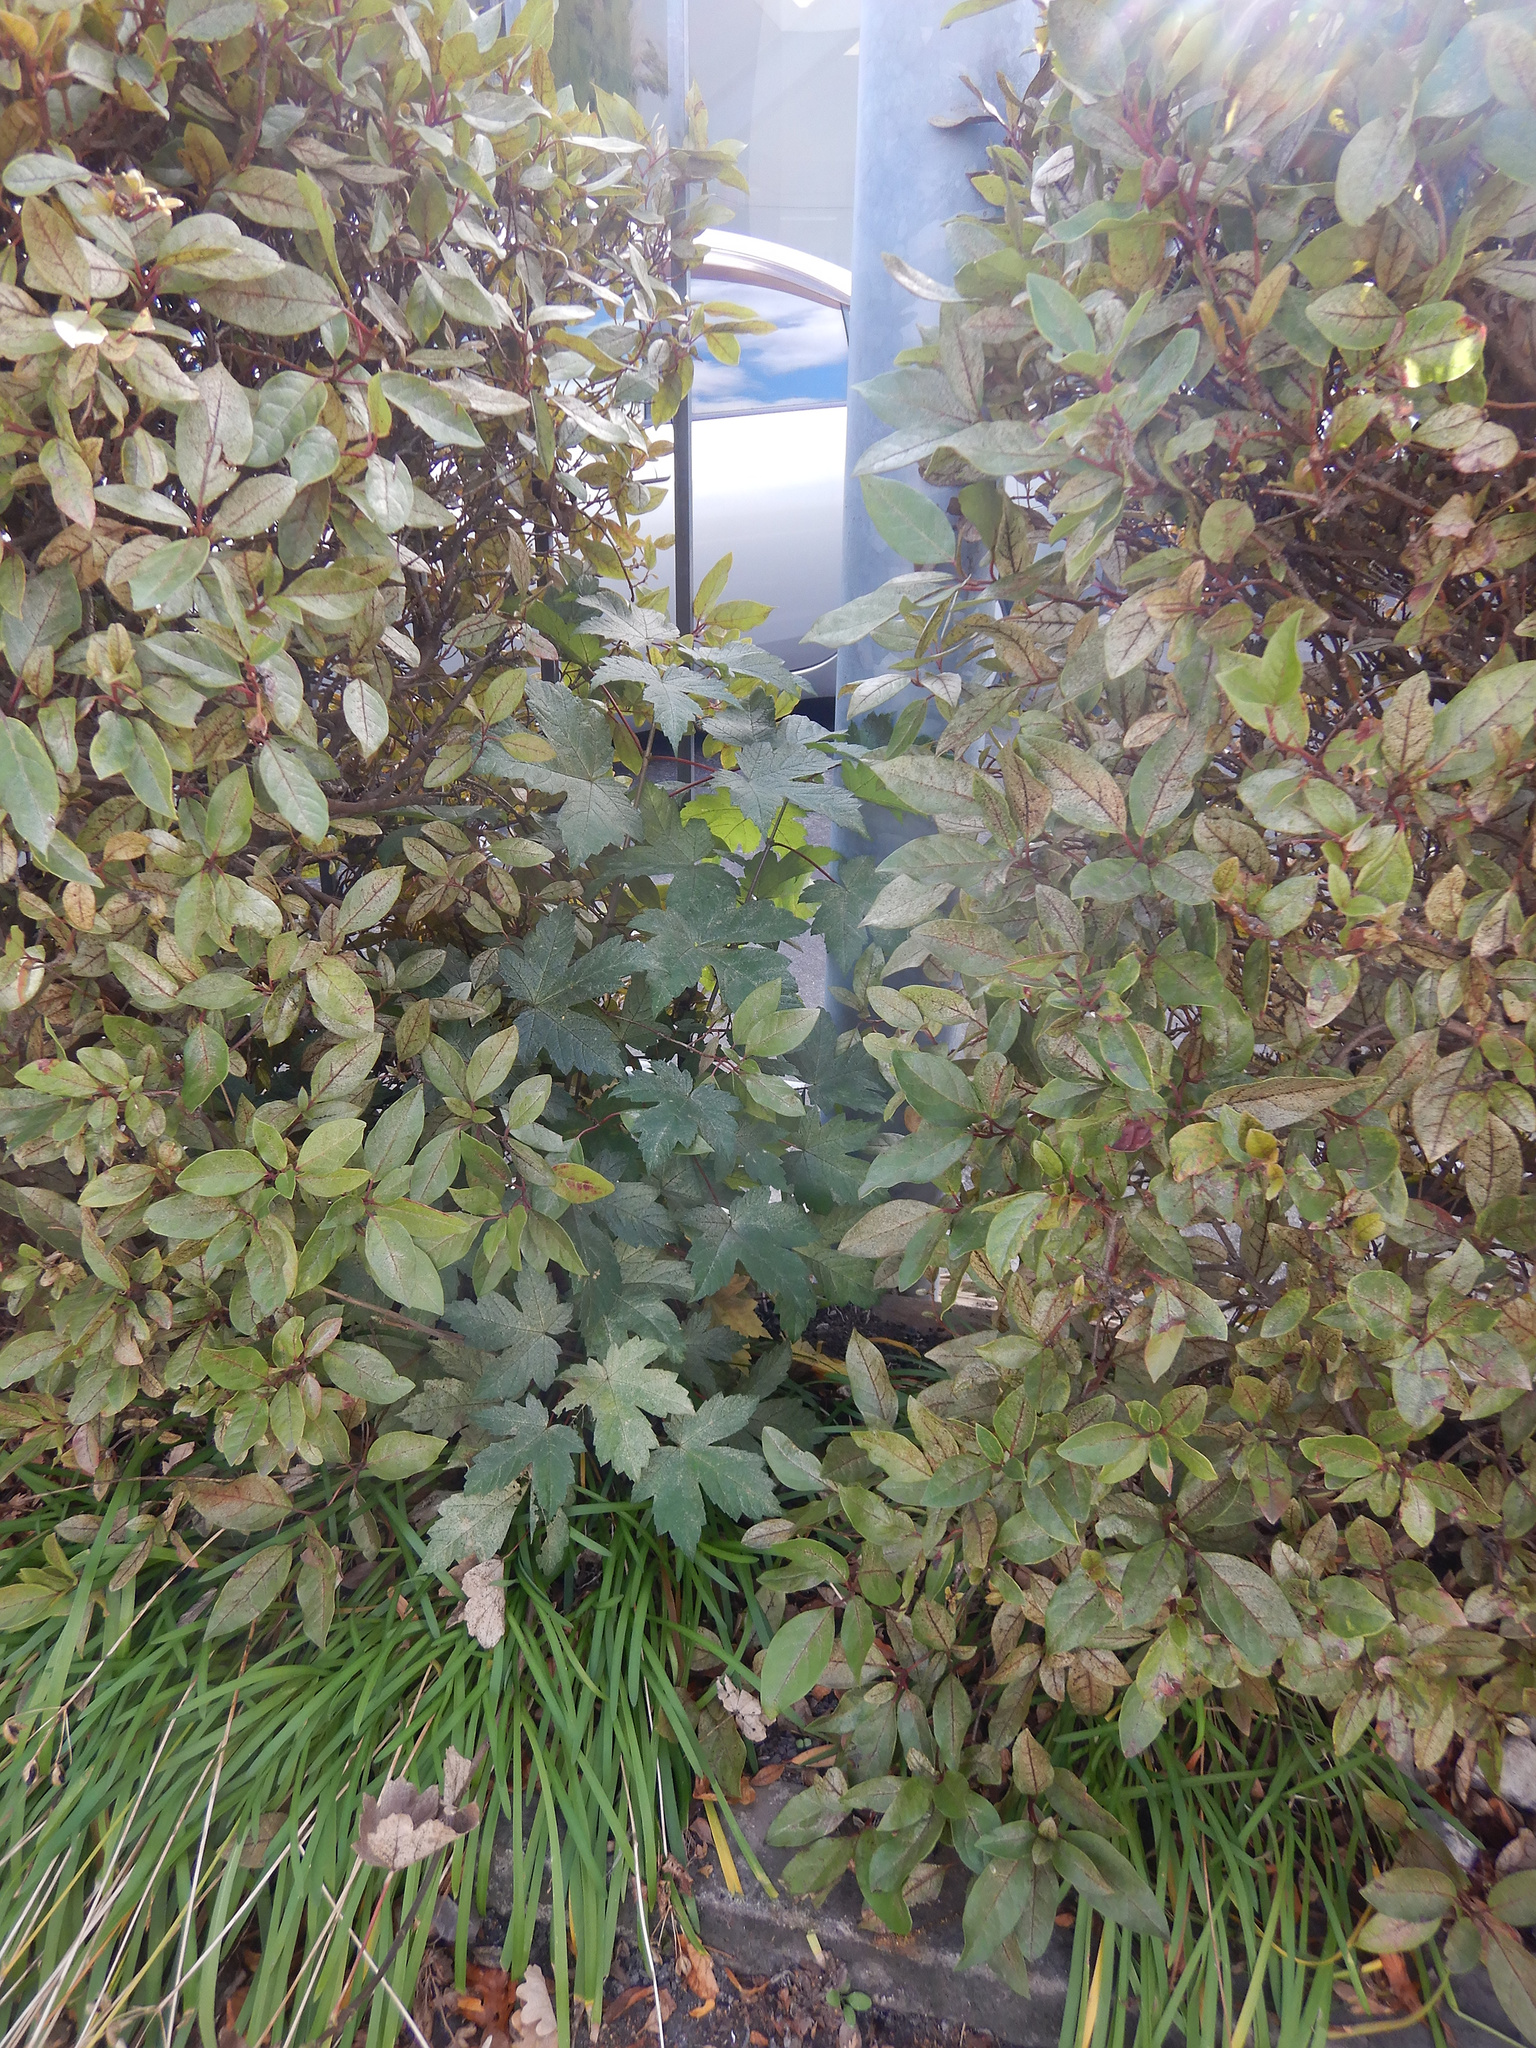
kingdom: Plantae
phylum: Tracheophyta
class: Magnoliopsida
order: Sapindales
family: Sapindaceae
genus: Acer
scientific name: Acer pseudoplatanus
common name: Sycamore
